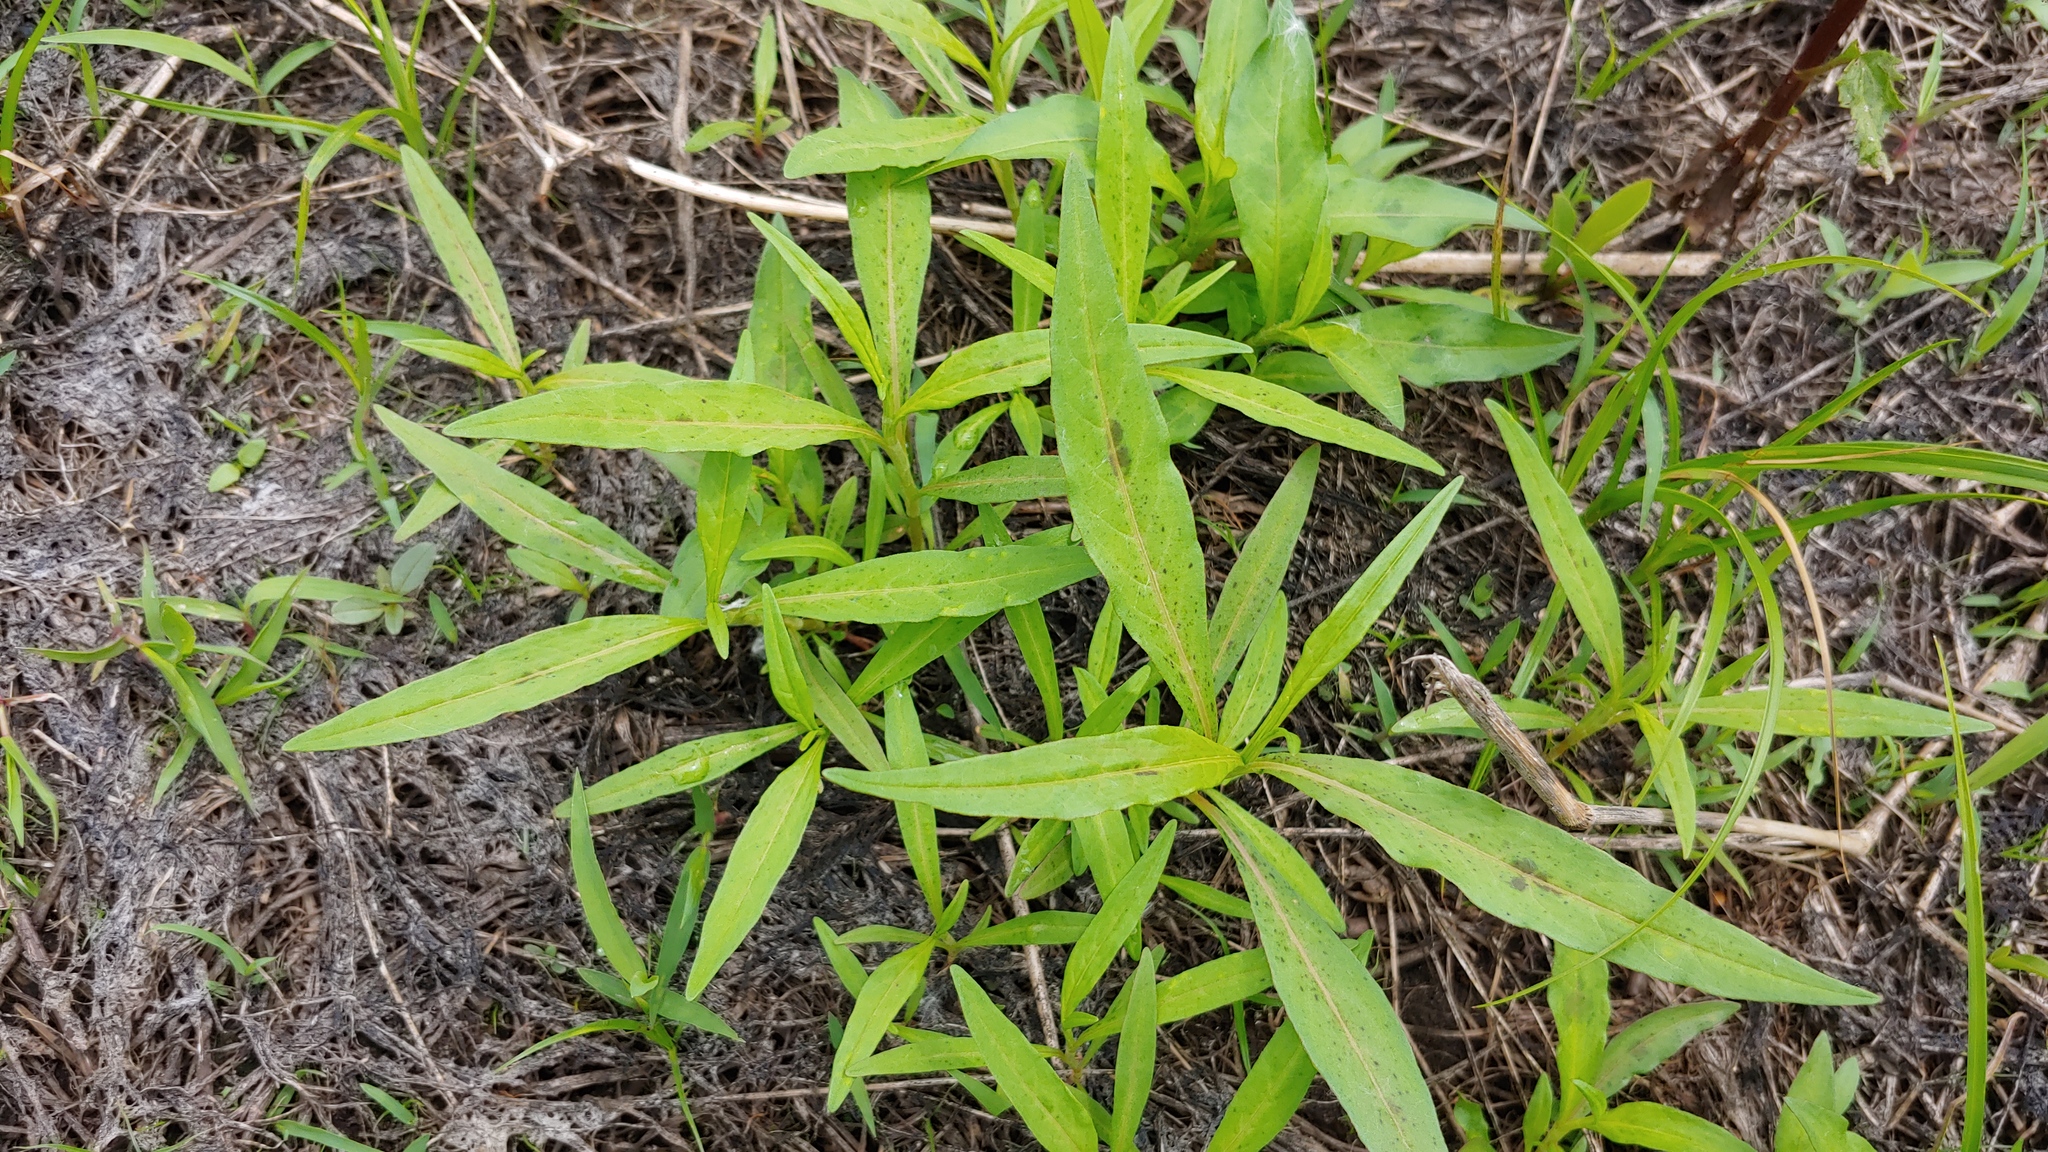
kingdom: Plantae
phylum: Tracheophyta
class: Magnoliopsida
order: Caryophyllales
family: Polygonaceae
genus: Persicaria
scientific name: Persicaria
